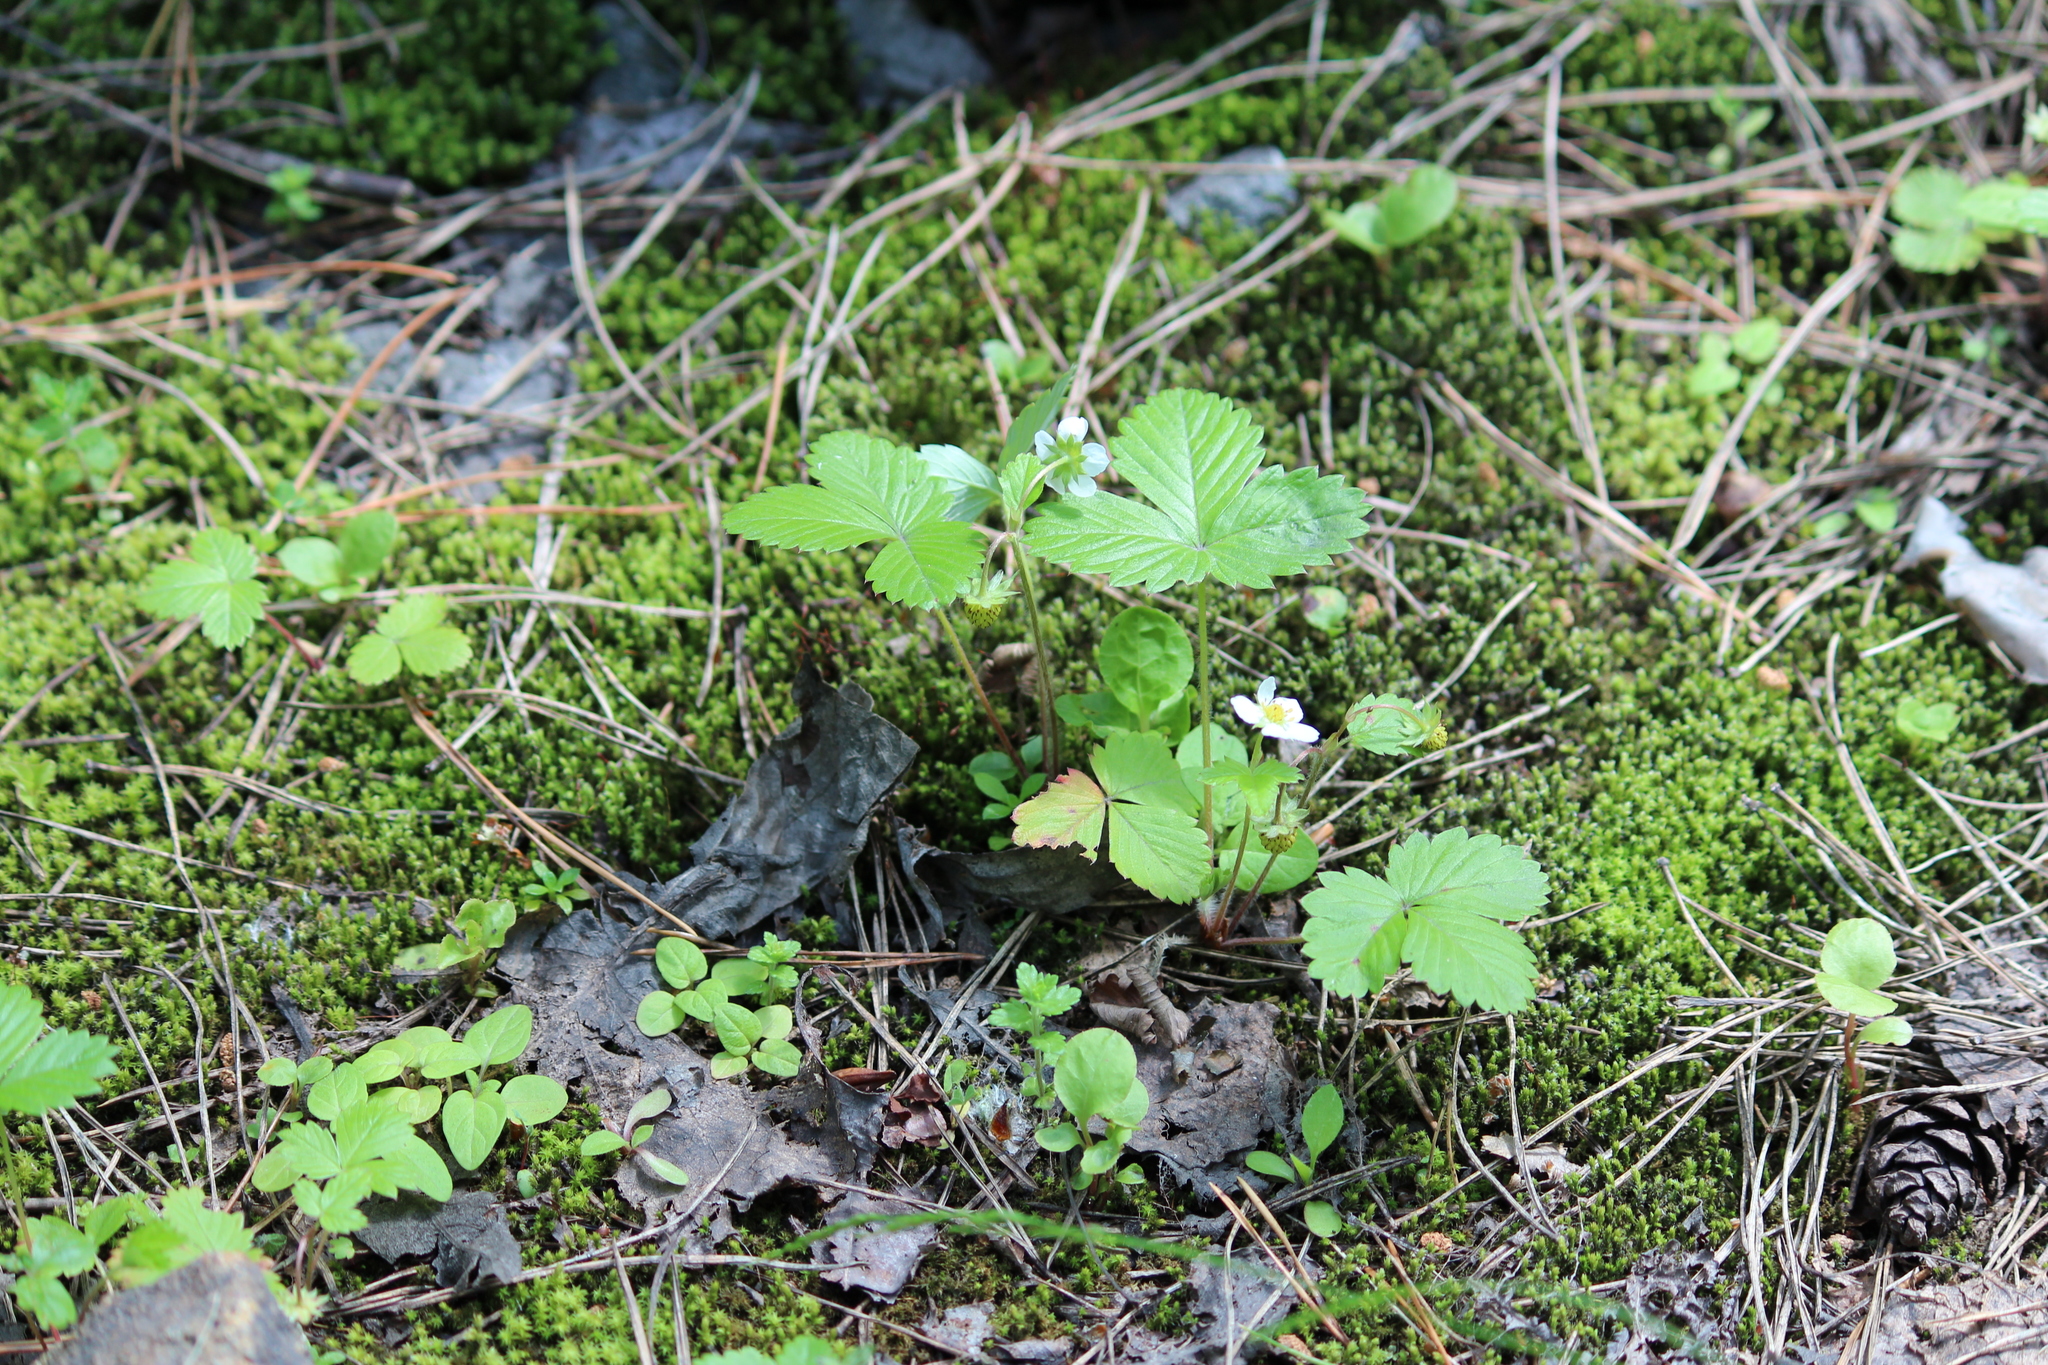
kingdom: Plantae
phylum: Tracheophyta
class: Magnoliopsida
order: Rosales
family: Rosaceae
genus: Fragaria
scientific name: Fragaria vesca
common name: Wild strawberry
